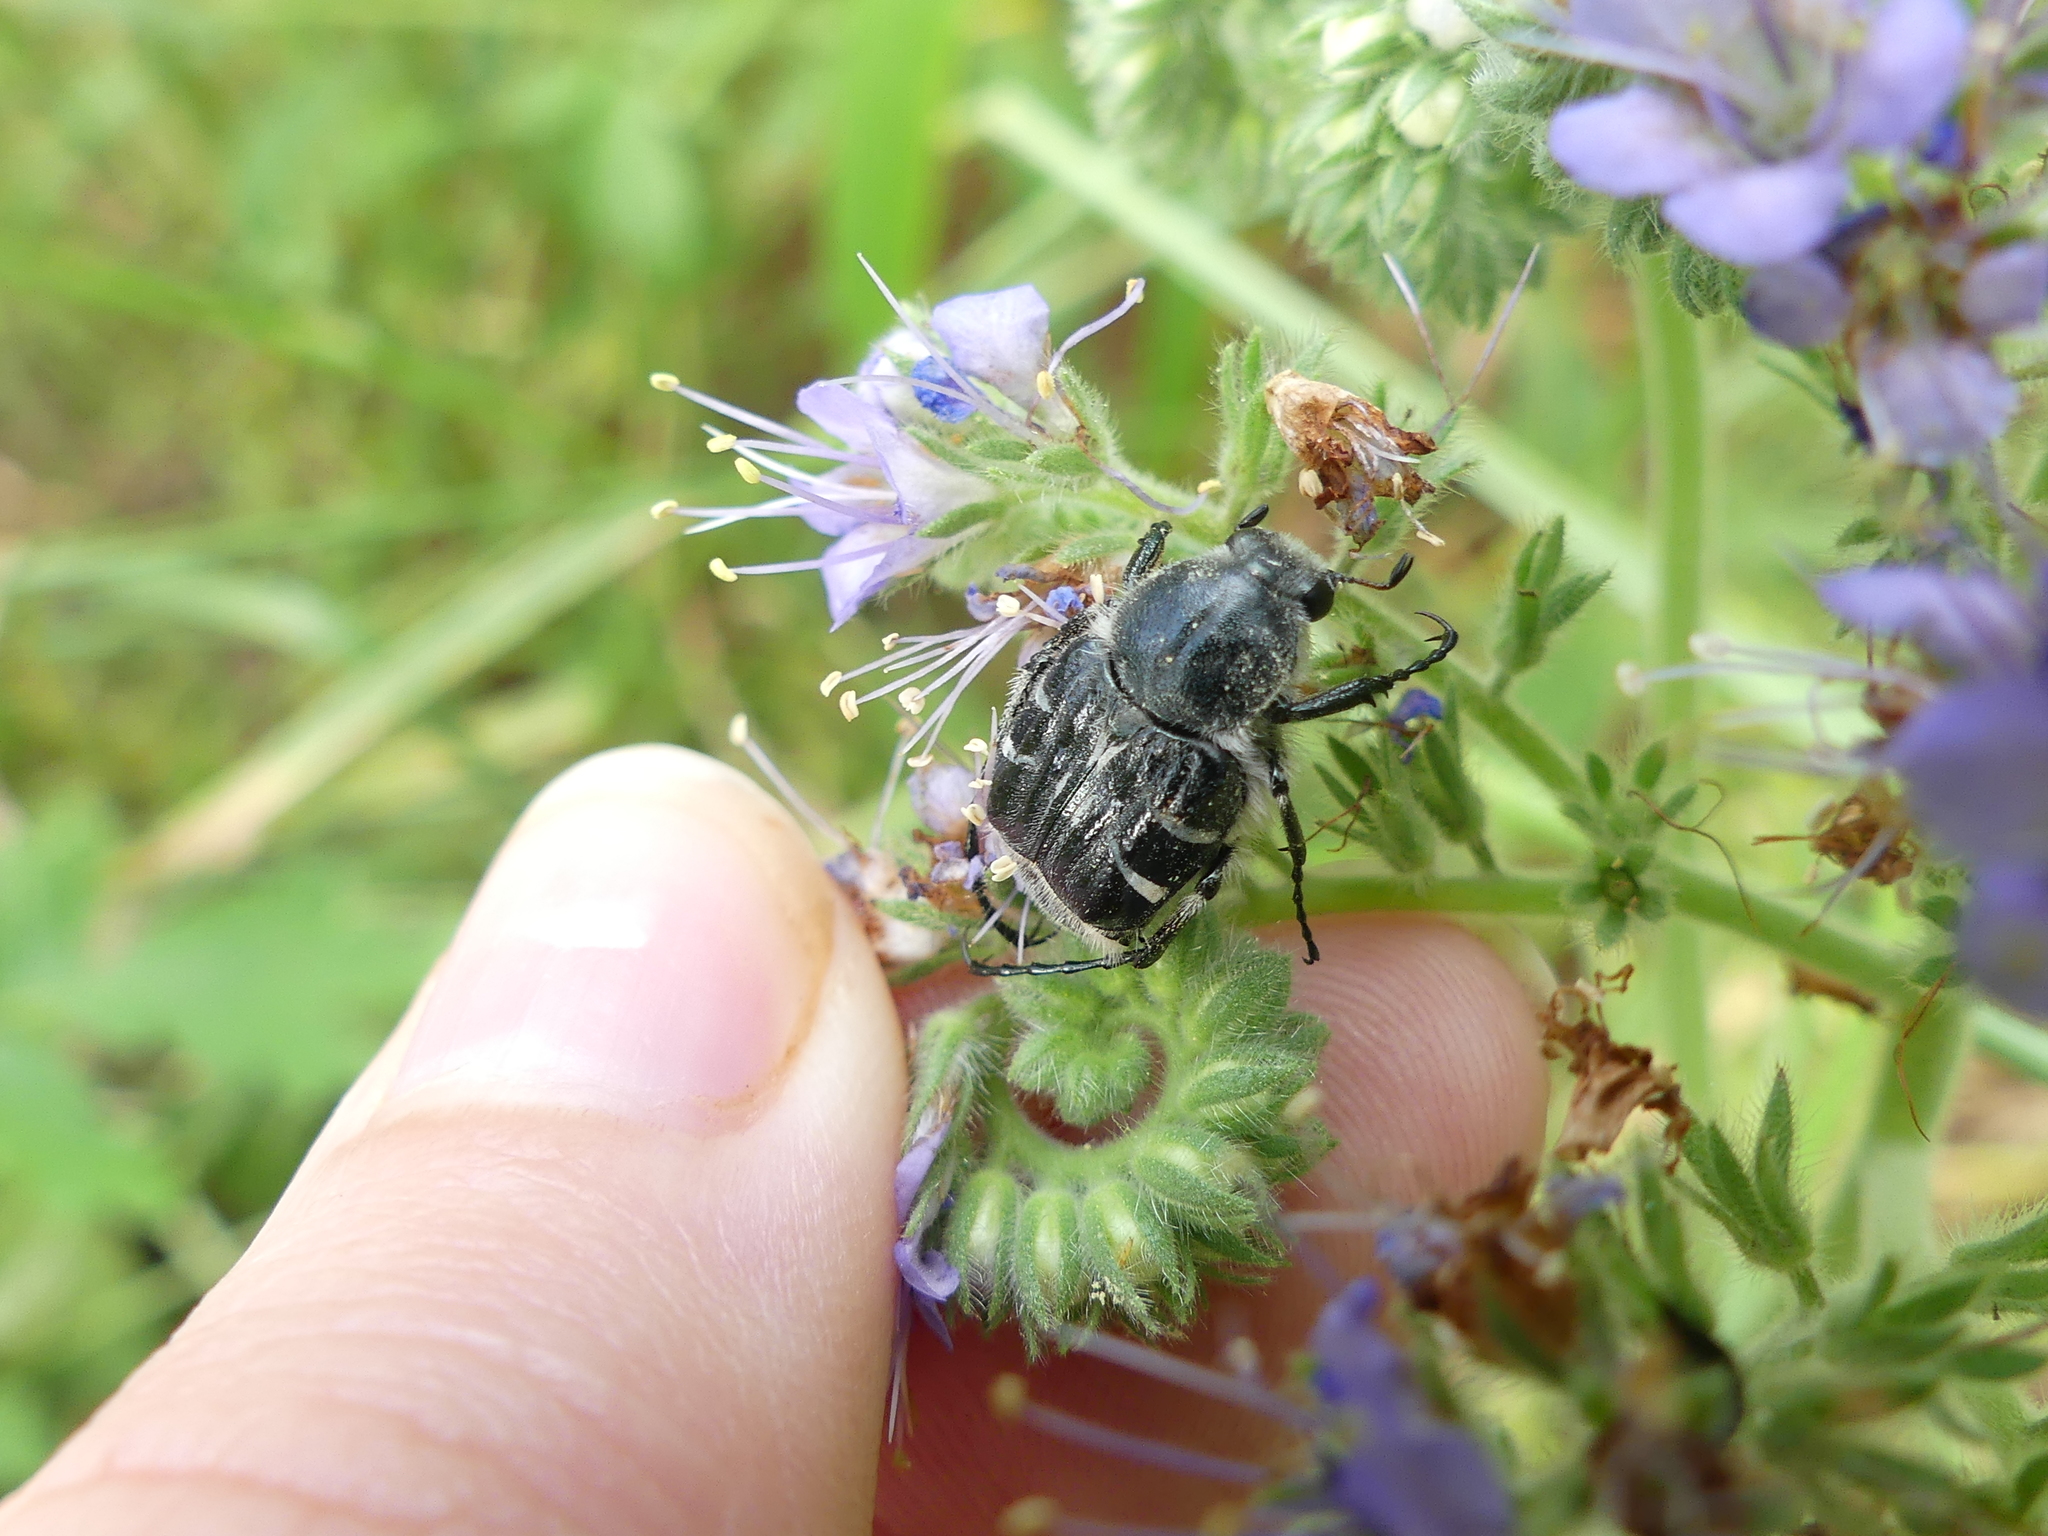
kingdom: Animalia
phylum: Arthropoda
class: Insecta
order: Coleoptera
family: Scarabaeidae
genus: Trichiotinus
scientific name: Trichiotinus texanus
